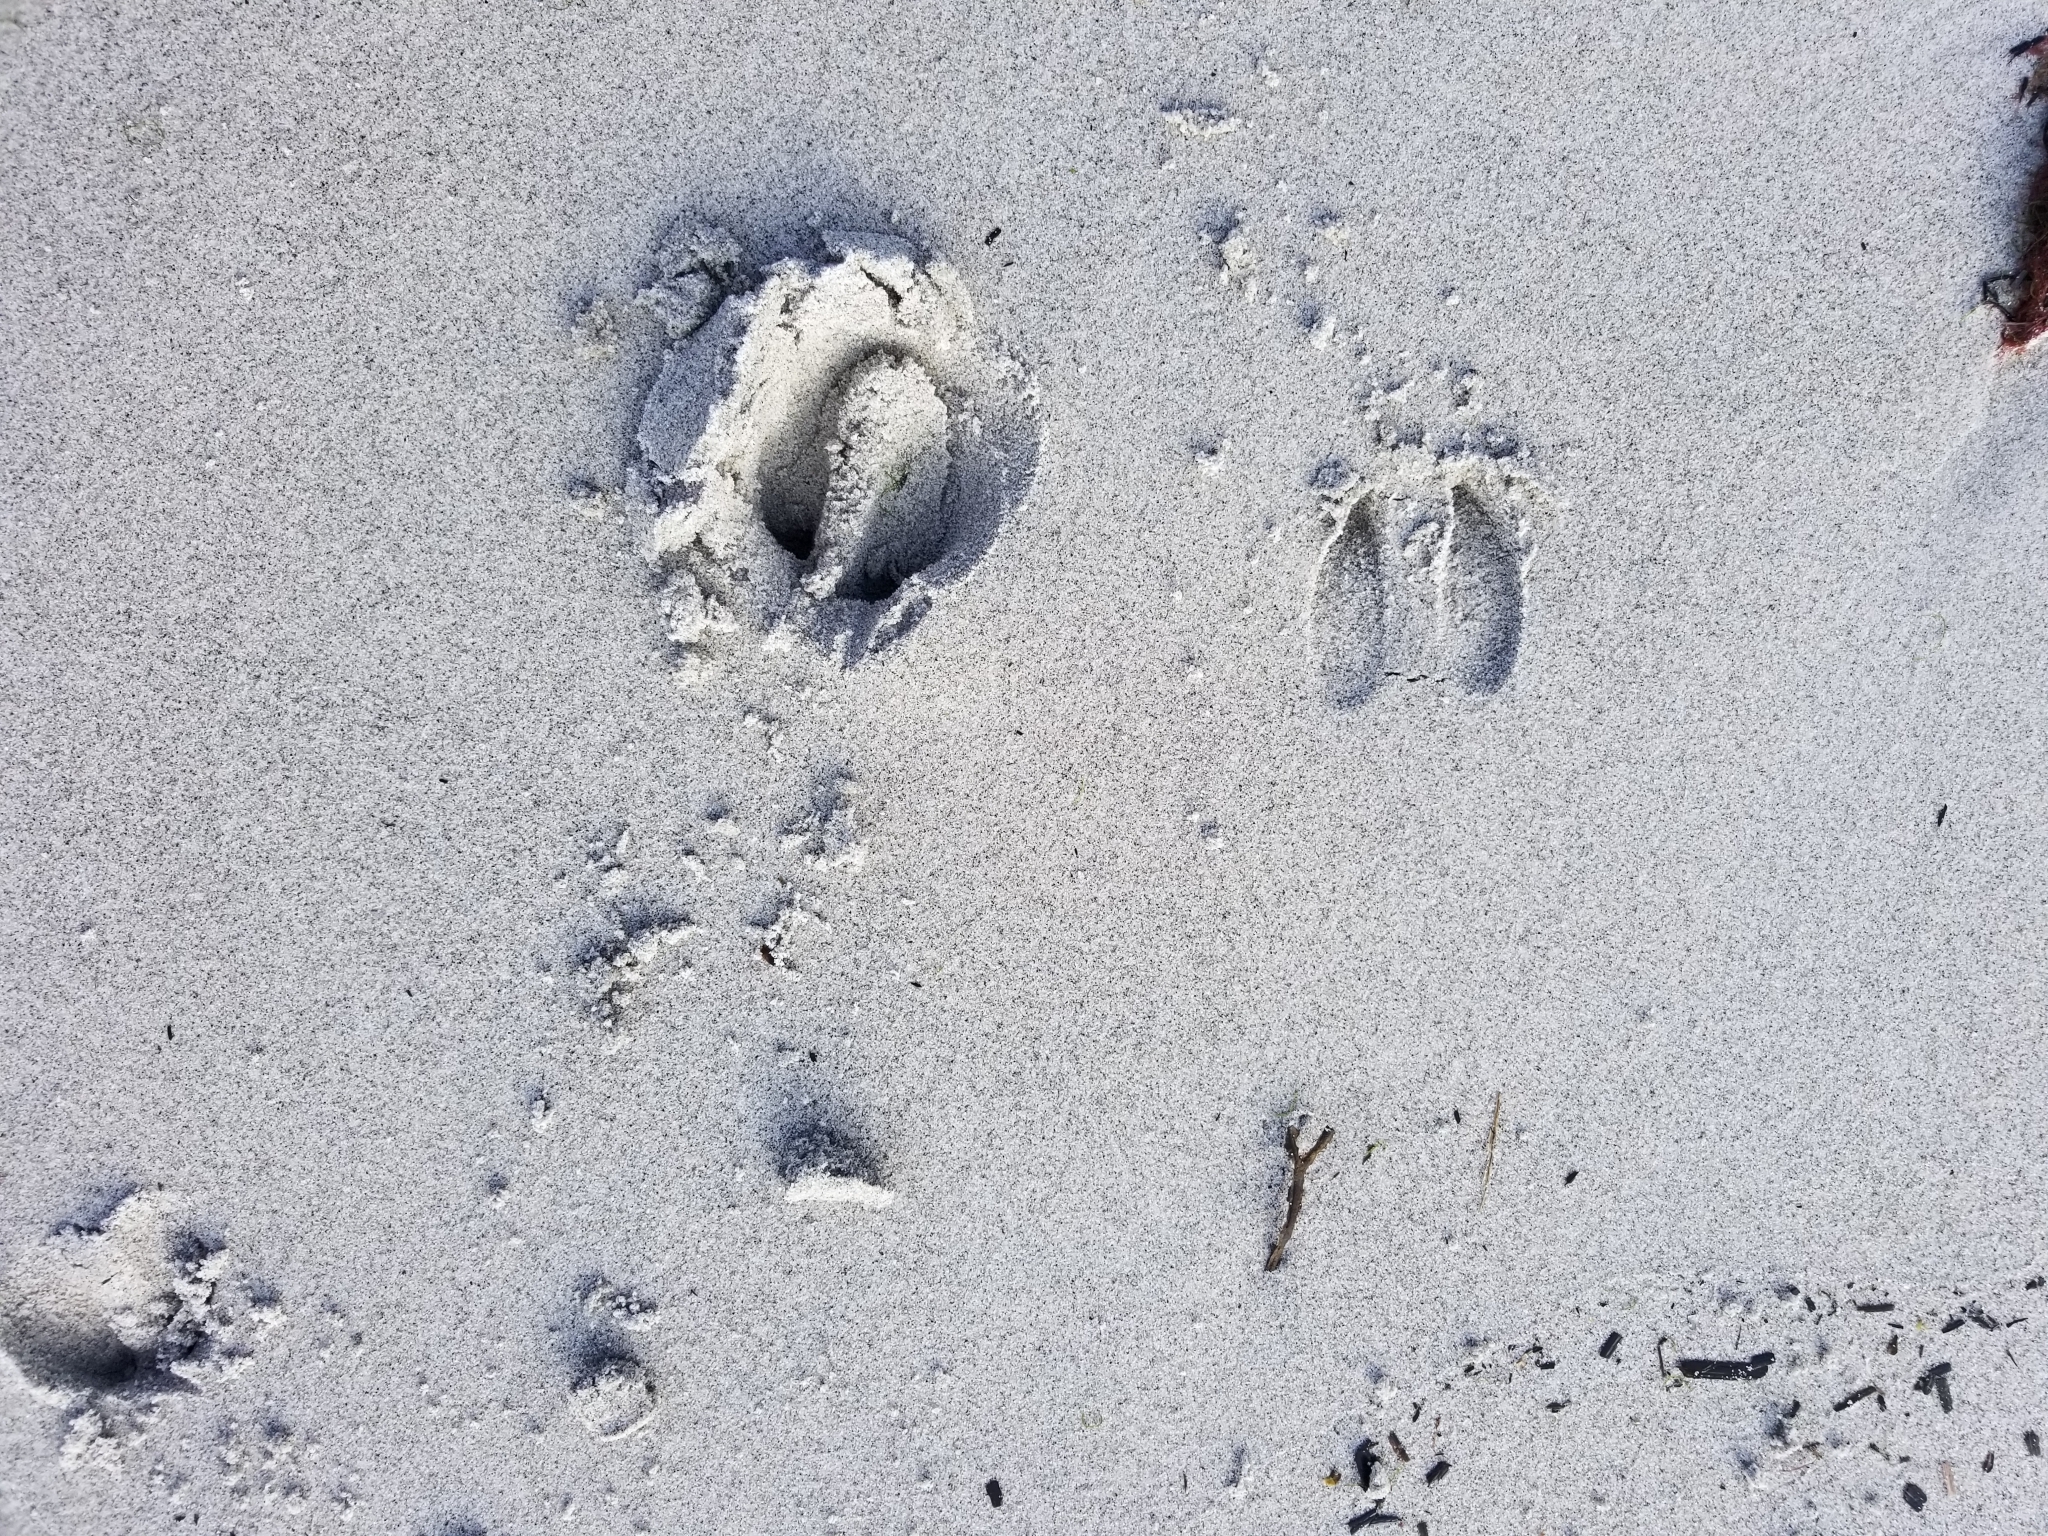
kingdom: Animalia
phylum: Chordata
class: Mammalia
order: Artiodactyla
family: Cervidae
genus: Odocoileus
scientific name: Odocoileus virginianus
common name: White-tailed deer
